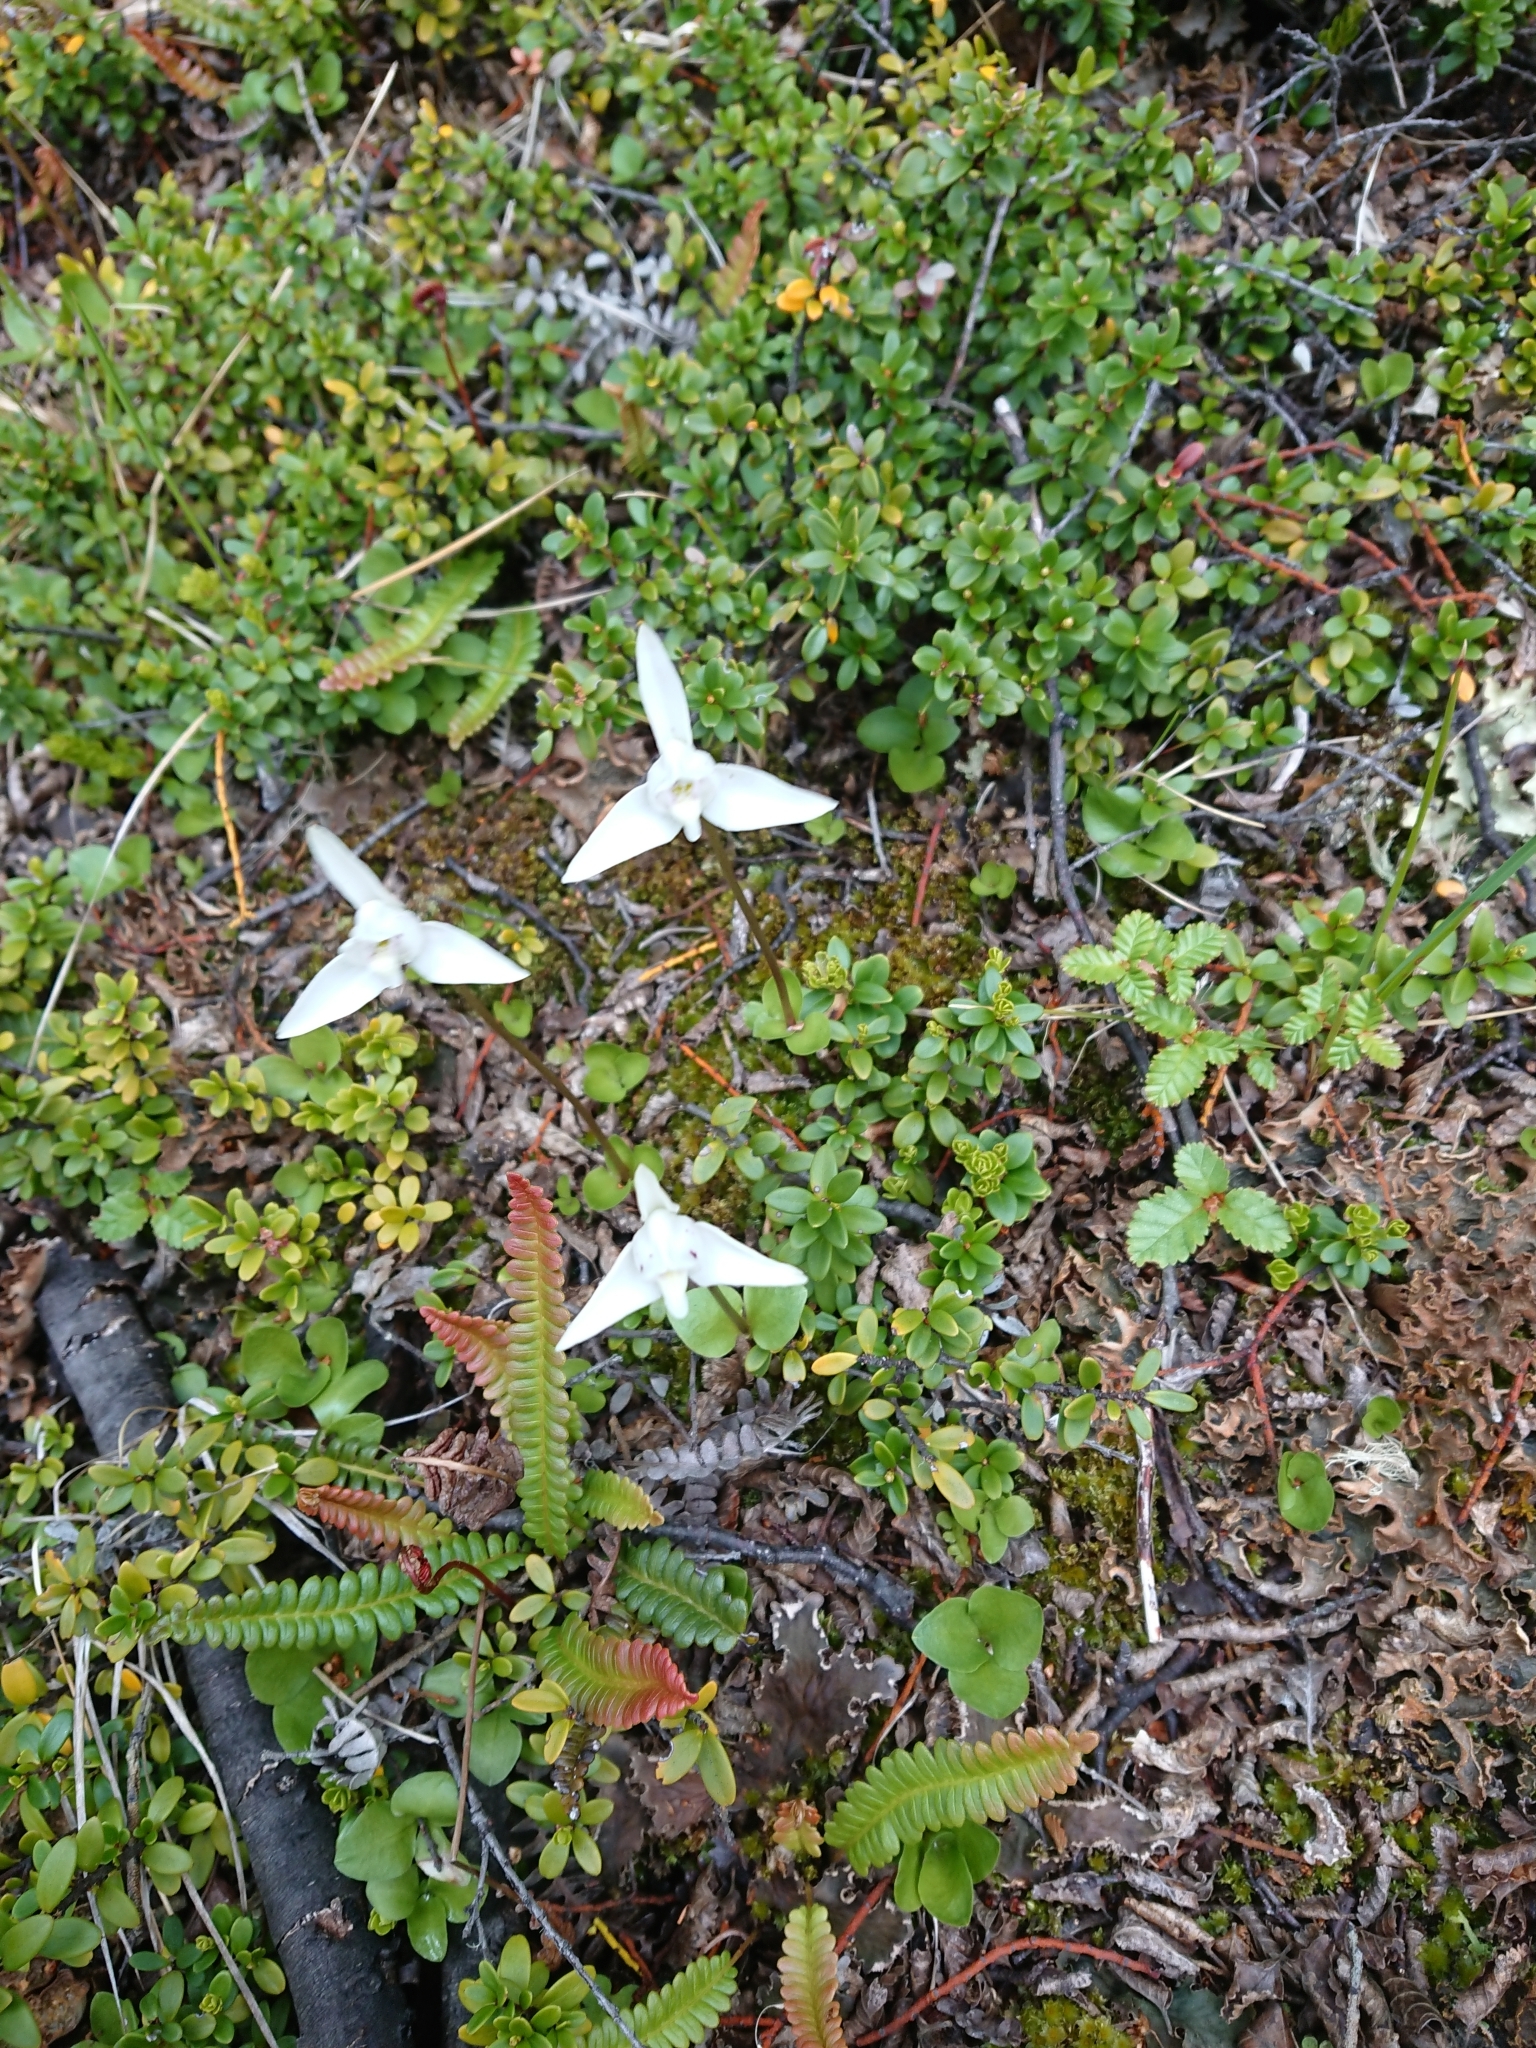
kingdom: Plantae
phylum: Tracheophyta
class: Liliopsida
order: Asparagales
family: Orchidaceae
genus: Codonorchis
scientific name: Codonorchis lessonii
